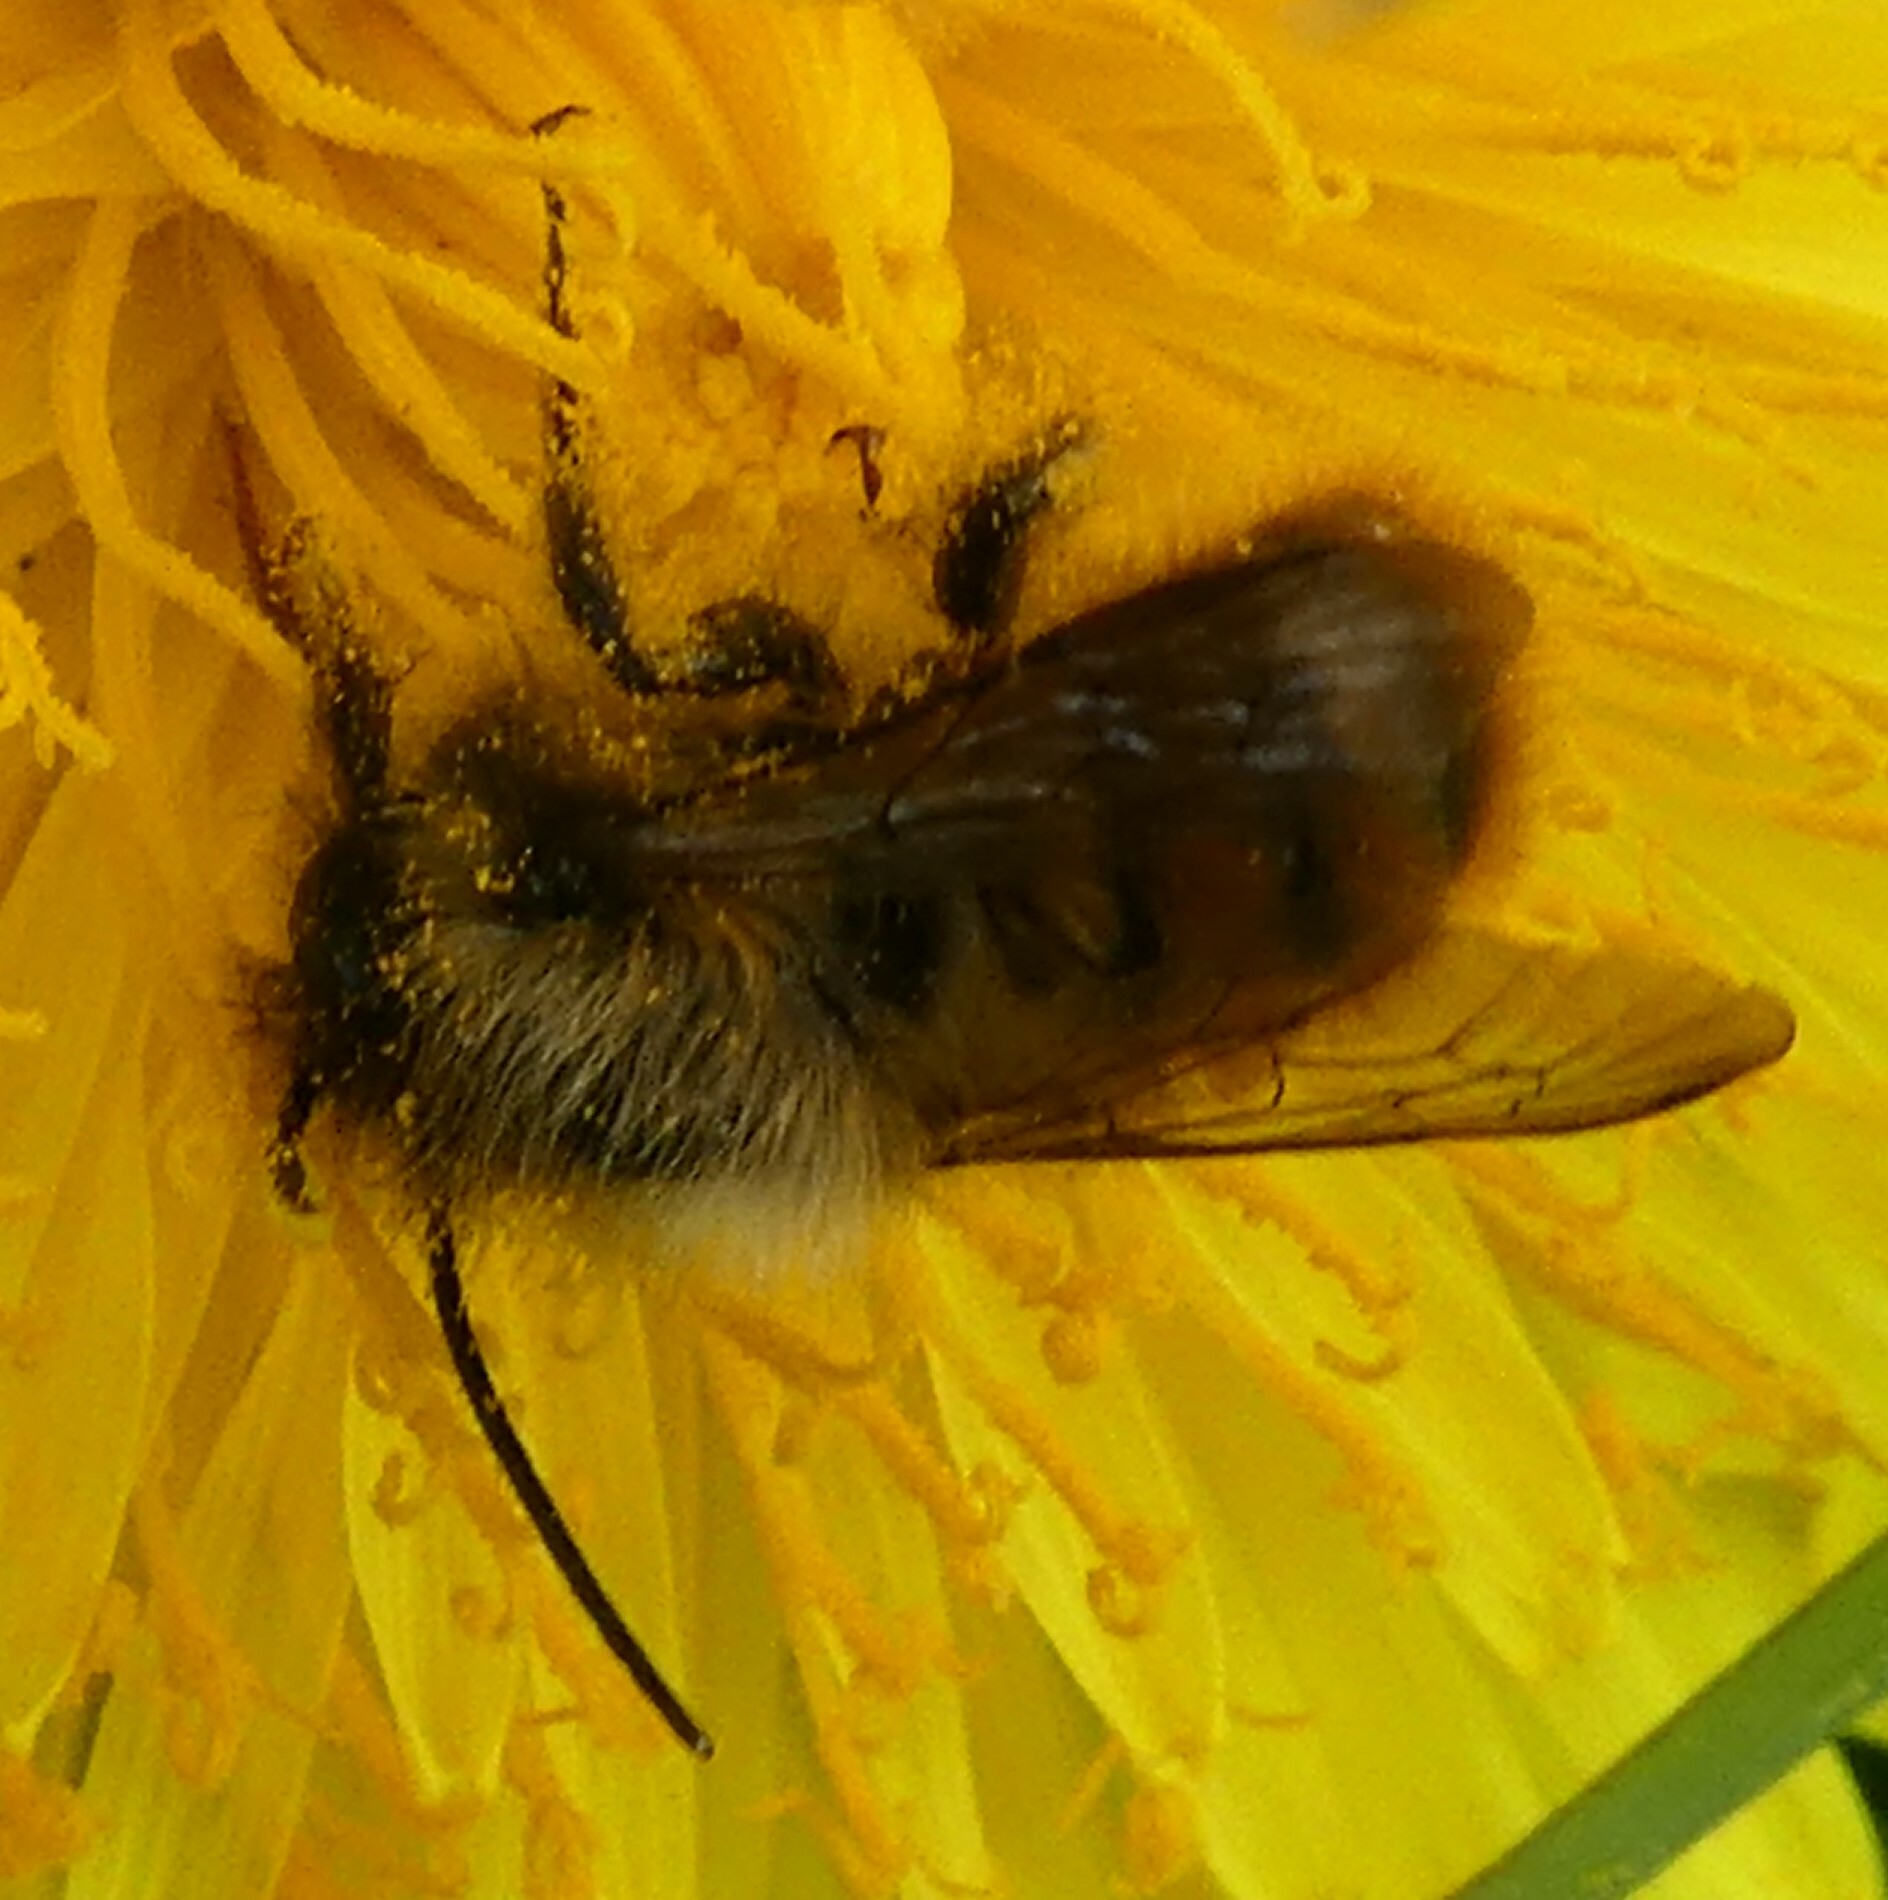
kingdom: Animalia
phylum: Arthropoda
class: Insecta
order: Hymenoptera
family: Megachilidae
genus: Osmia
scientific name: Osmia bicornis
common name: Red mason bee
